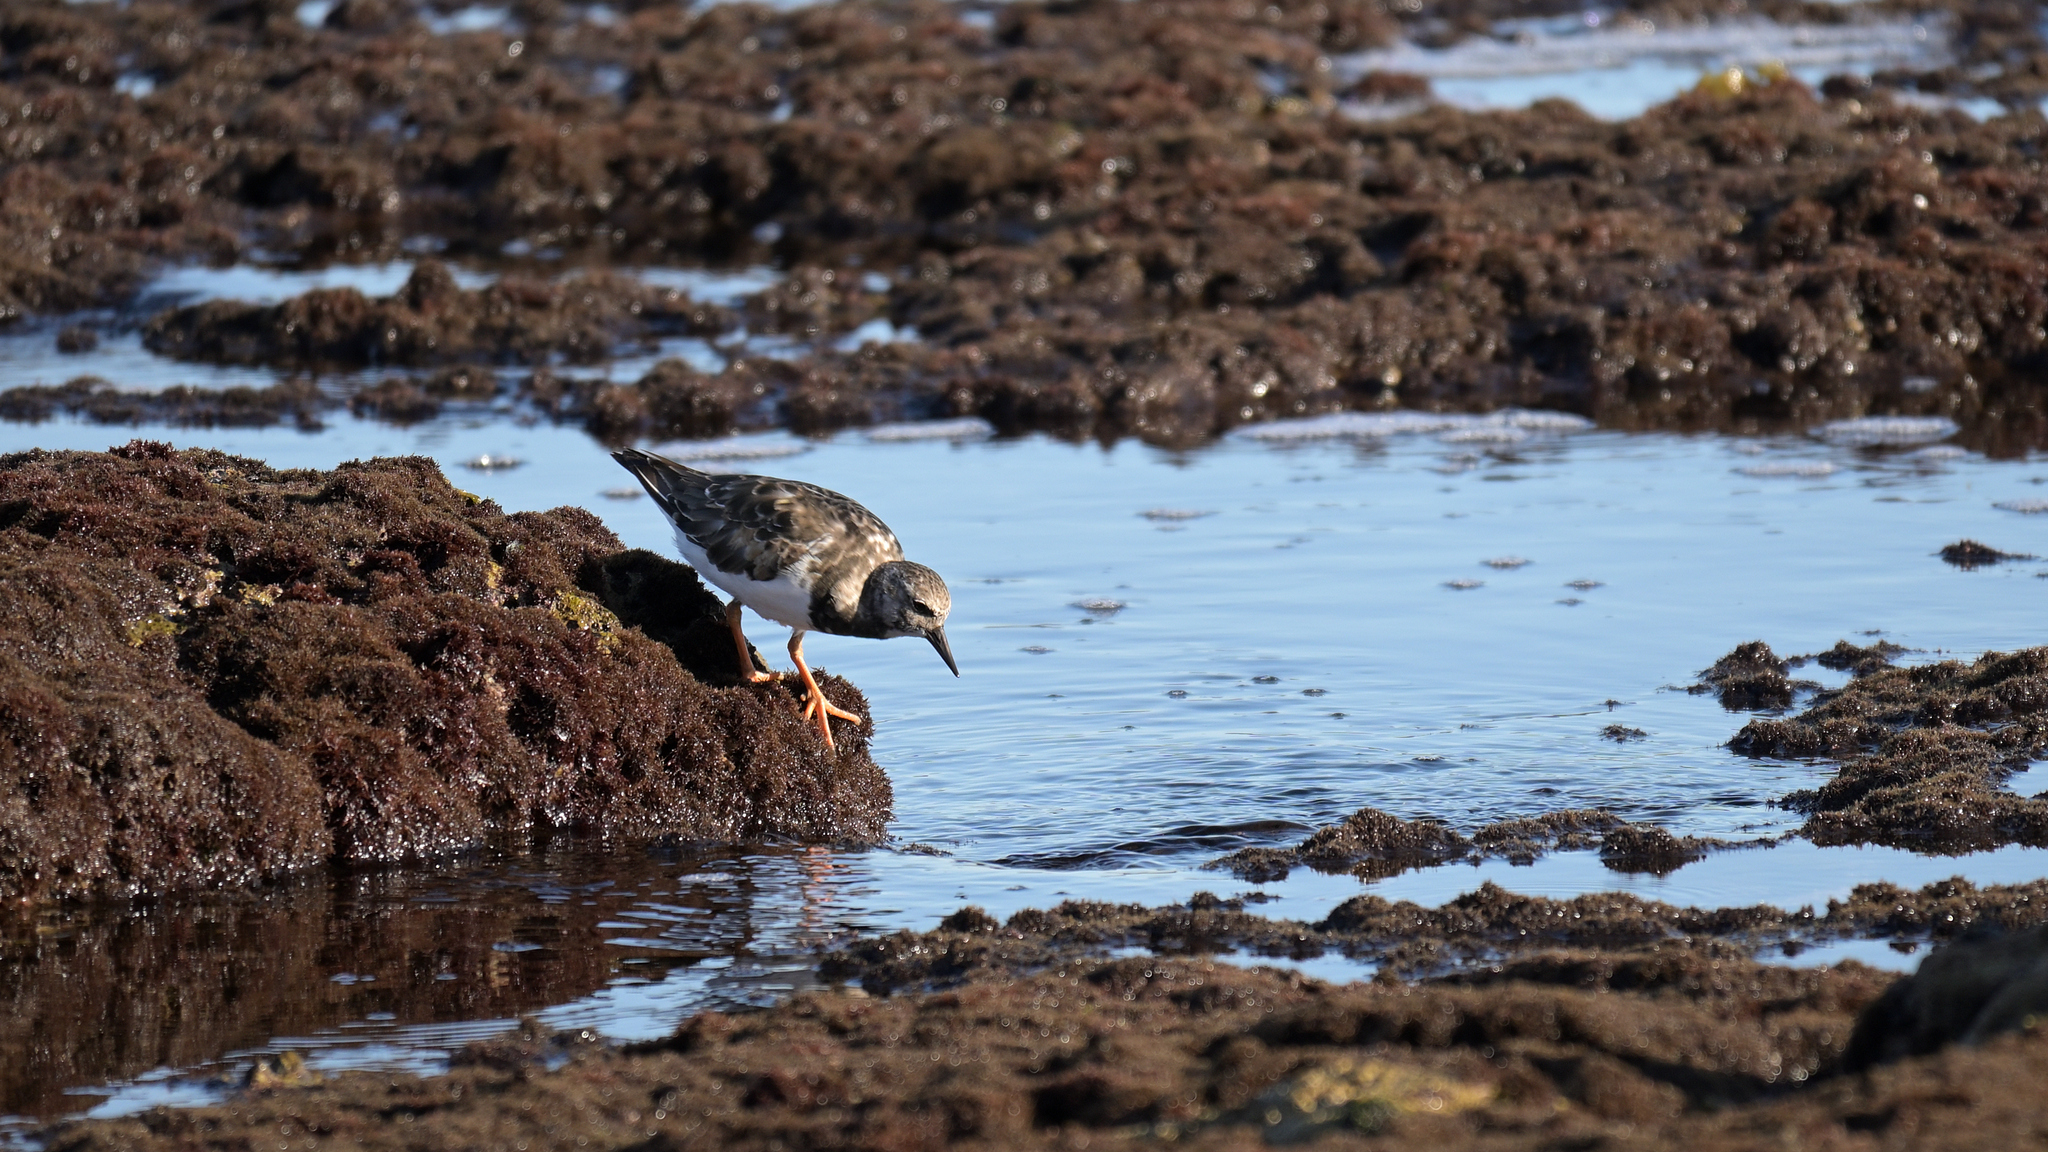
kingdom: Animalia
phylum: Chordata
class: Aves
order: Charadriiformes
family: Scolopacidae
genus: Arenaria
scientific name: Arenaria interpres
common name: Ruddy turnstone
